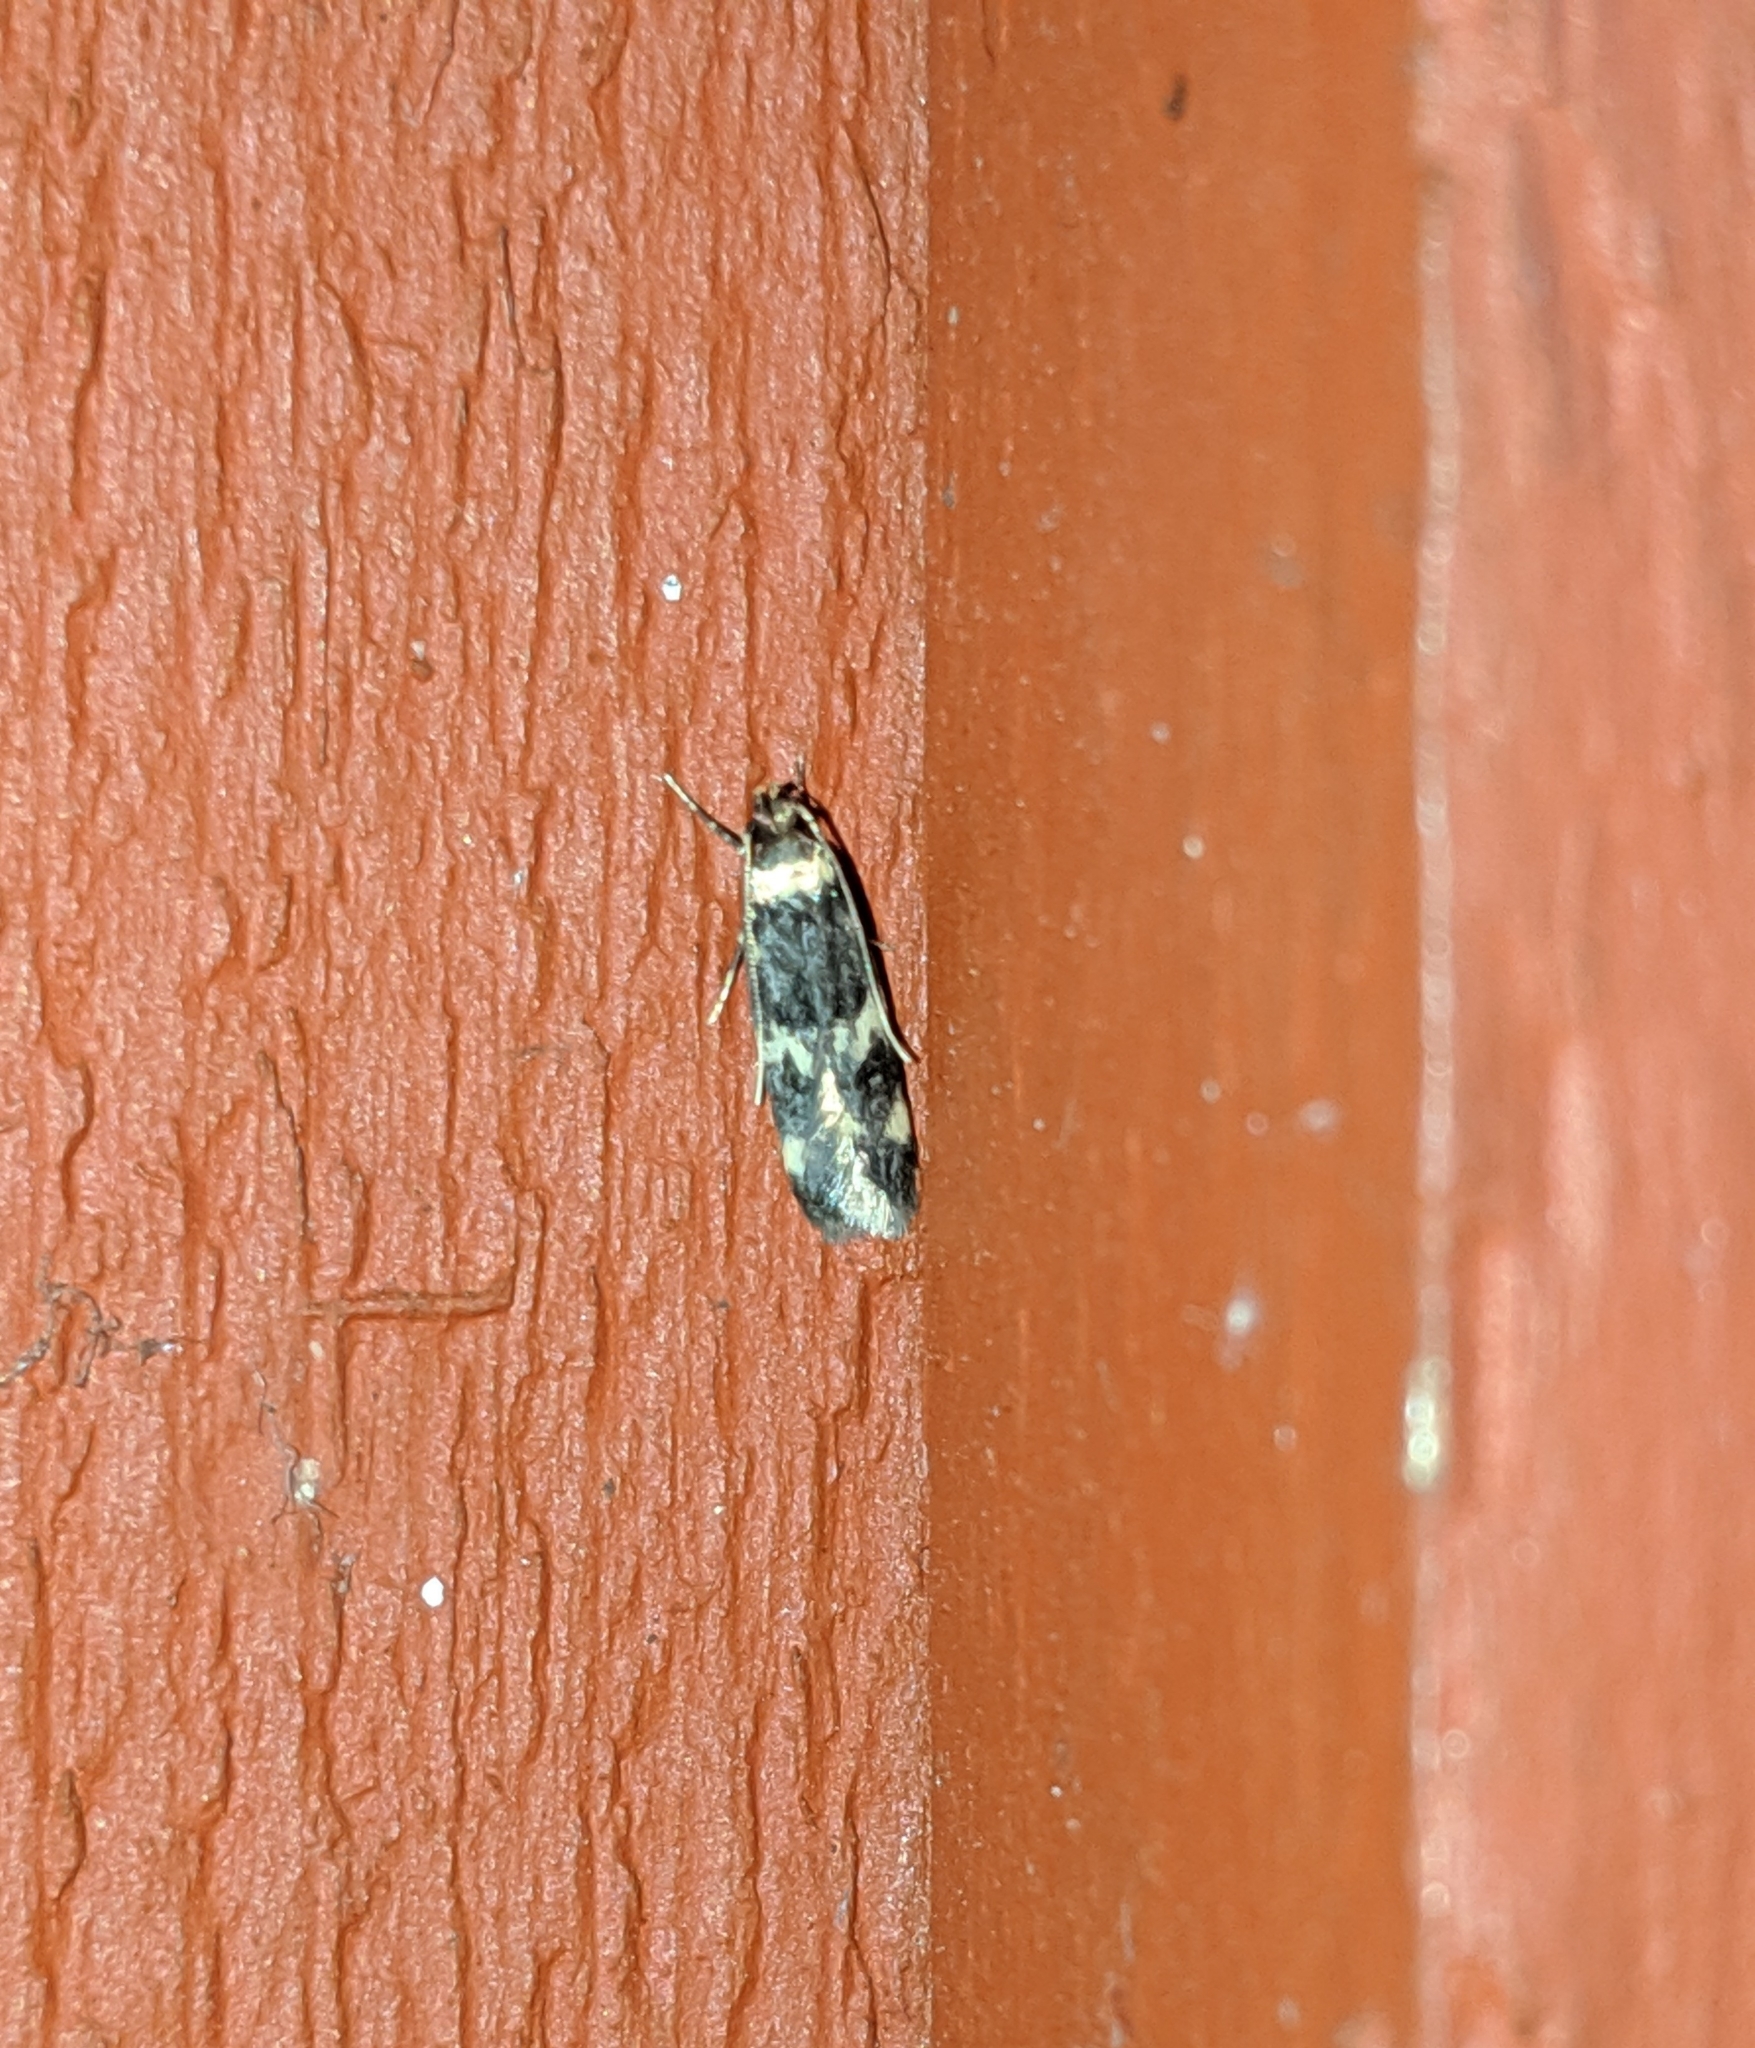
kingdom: Animalia
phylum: Arthropoda
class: Insecta
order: Lepidoptera
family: Autostichidae
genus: Oegoconia
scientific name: Oegoconia quadripuncta
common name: Four-spotted obscure
